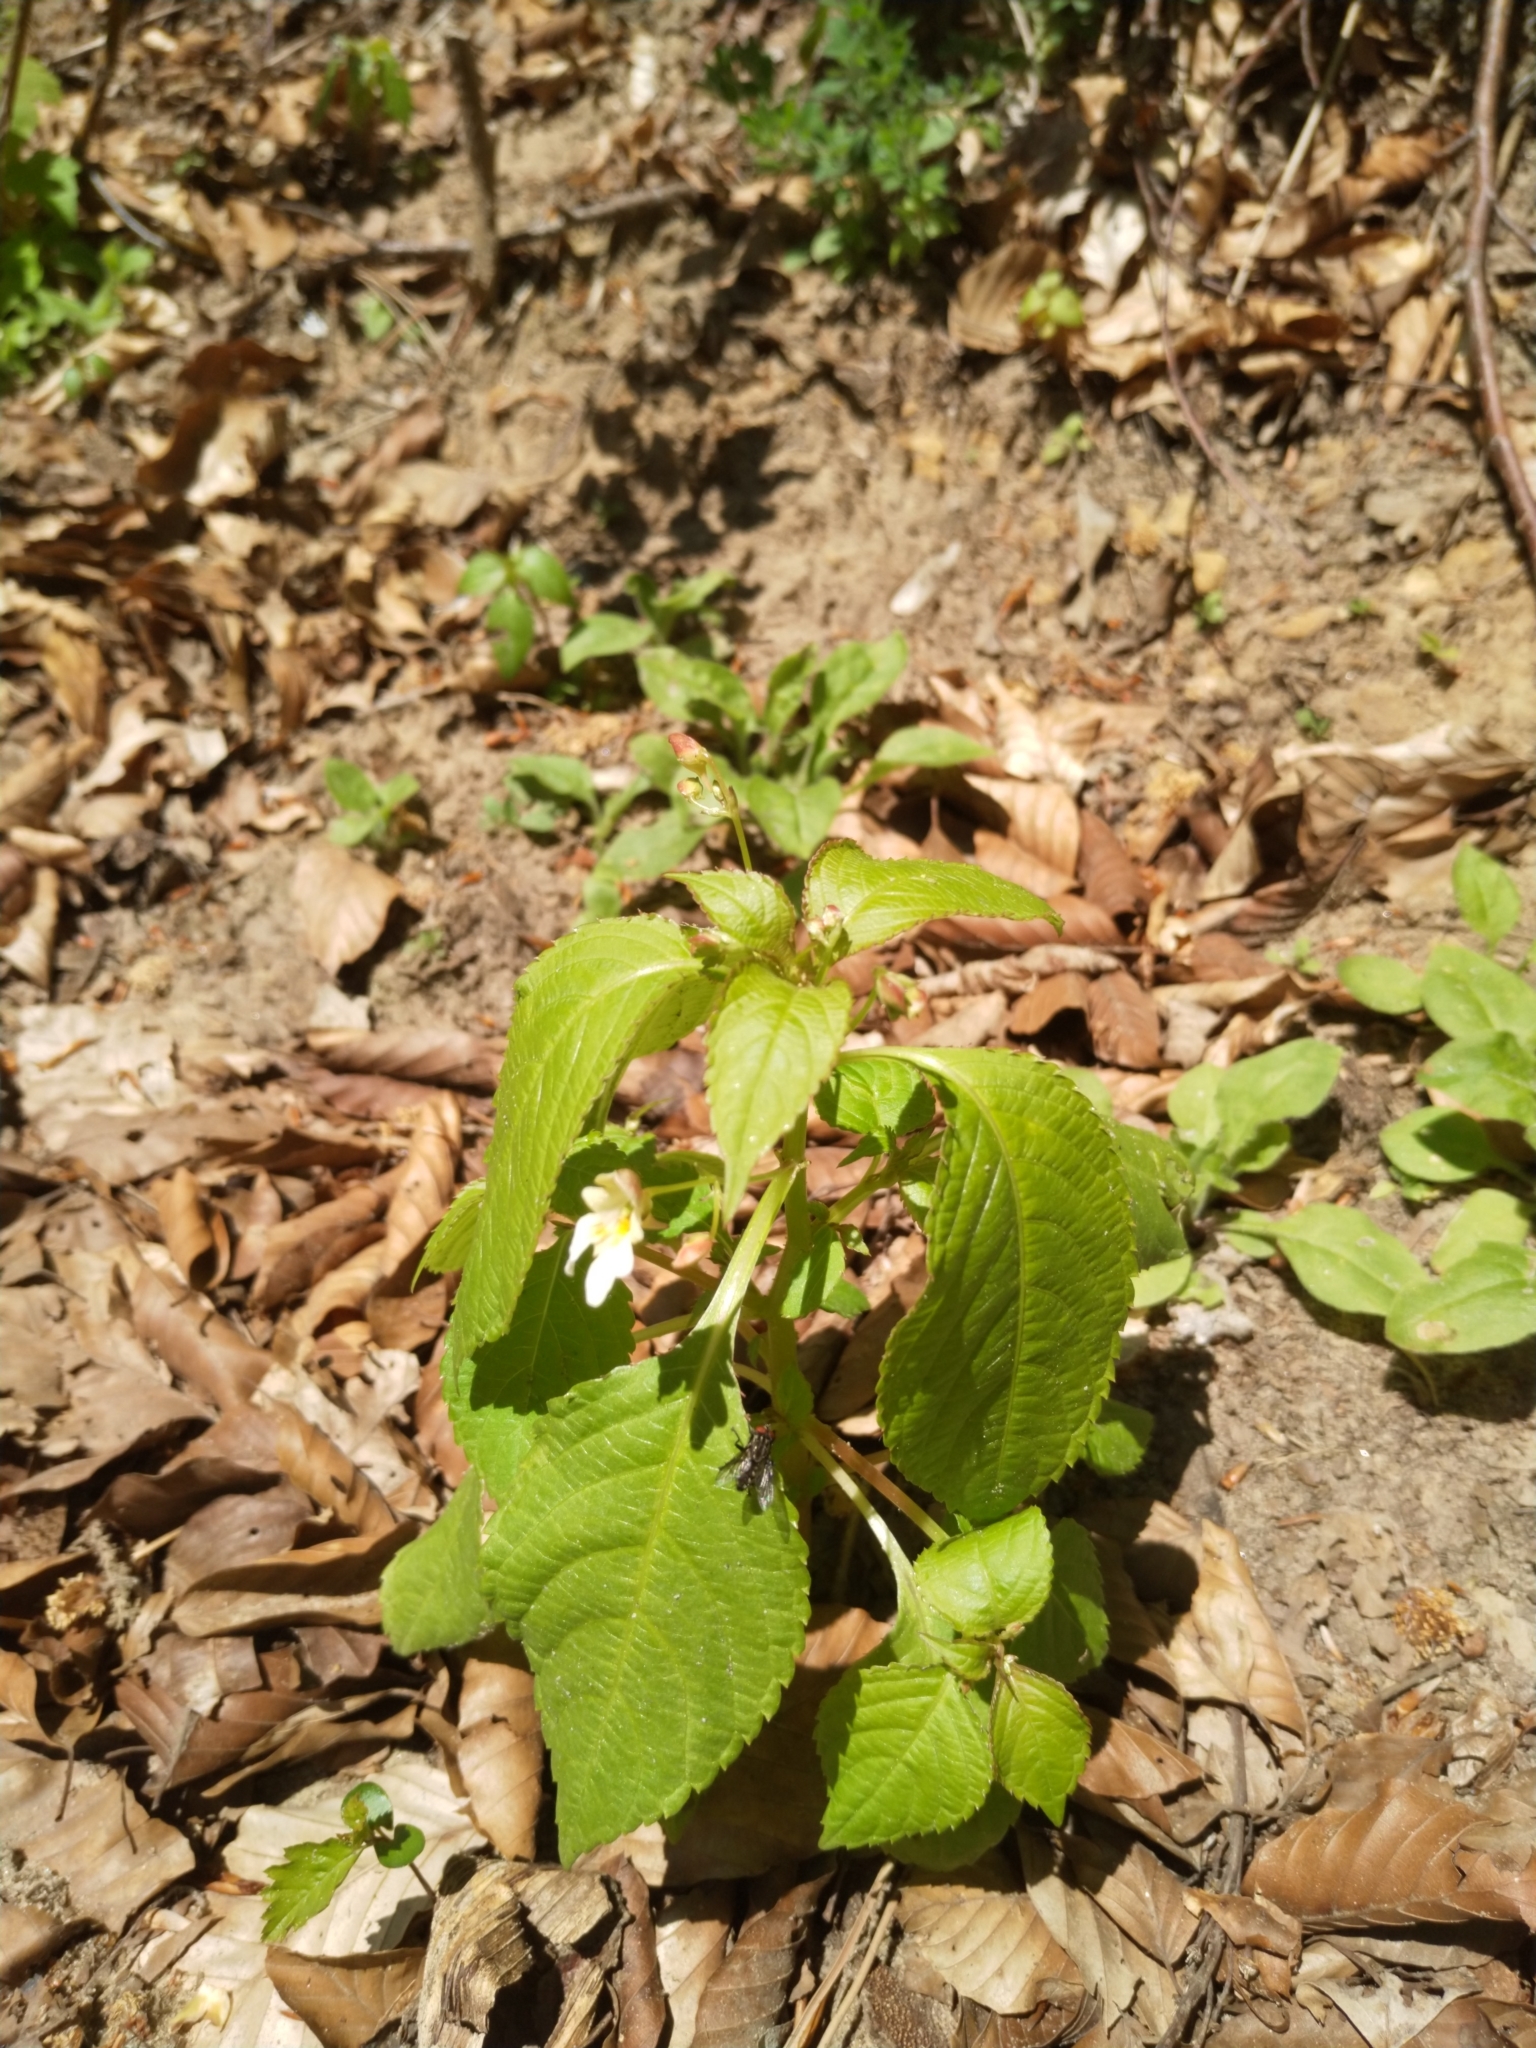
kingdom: Plantae
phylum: Tracheophyta
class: Magnoliopsida
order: Ericales
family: Balsaminaceae
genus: Impatiens
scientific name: Impatiens parviflora
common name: Small balsam
